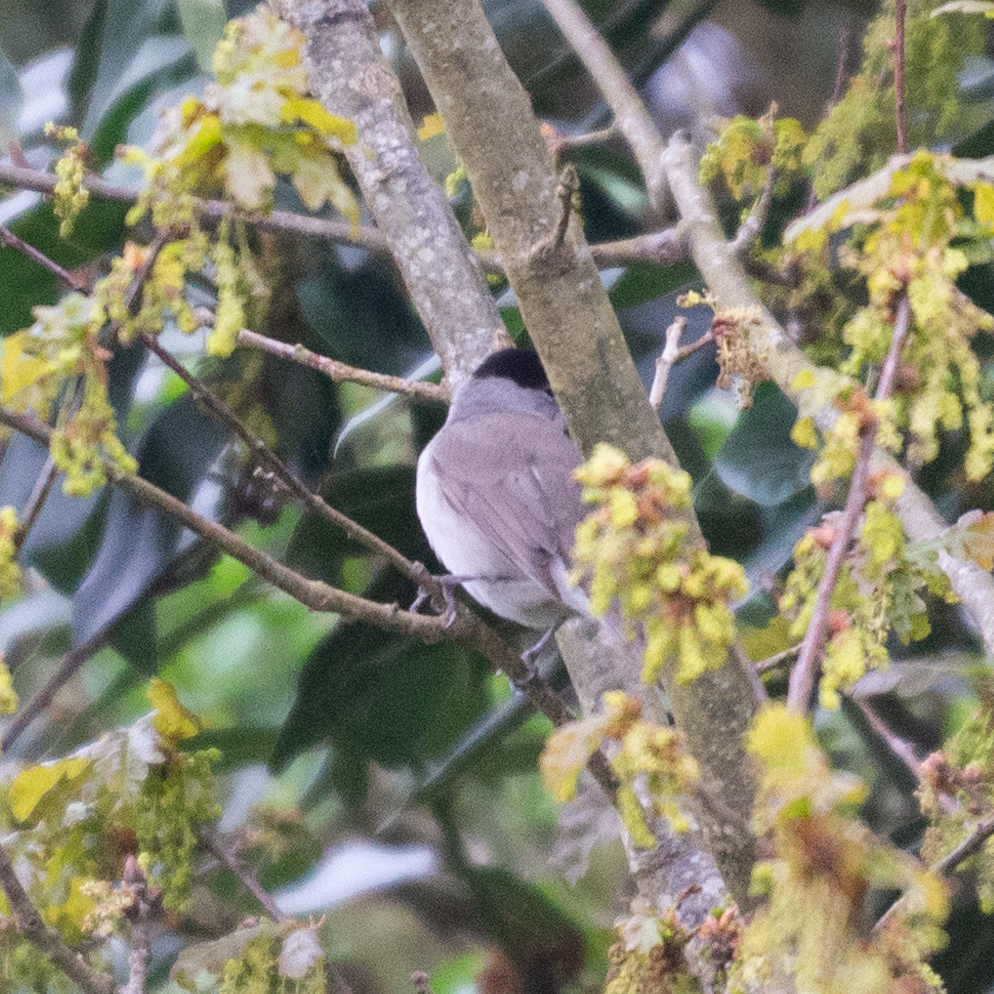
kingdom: Animalia
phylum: Chordata
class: Aves
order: Passeriformes
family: Sylviidae
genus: Sylvia
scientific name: Sylvia atricapilla
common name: Eurasian blackcap
